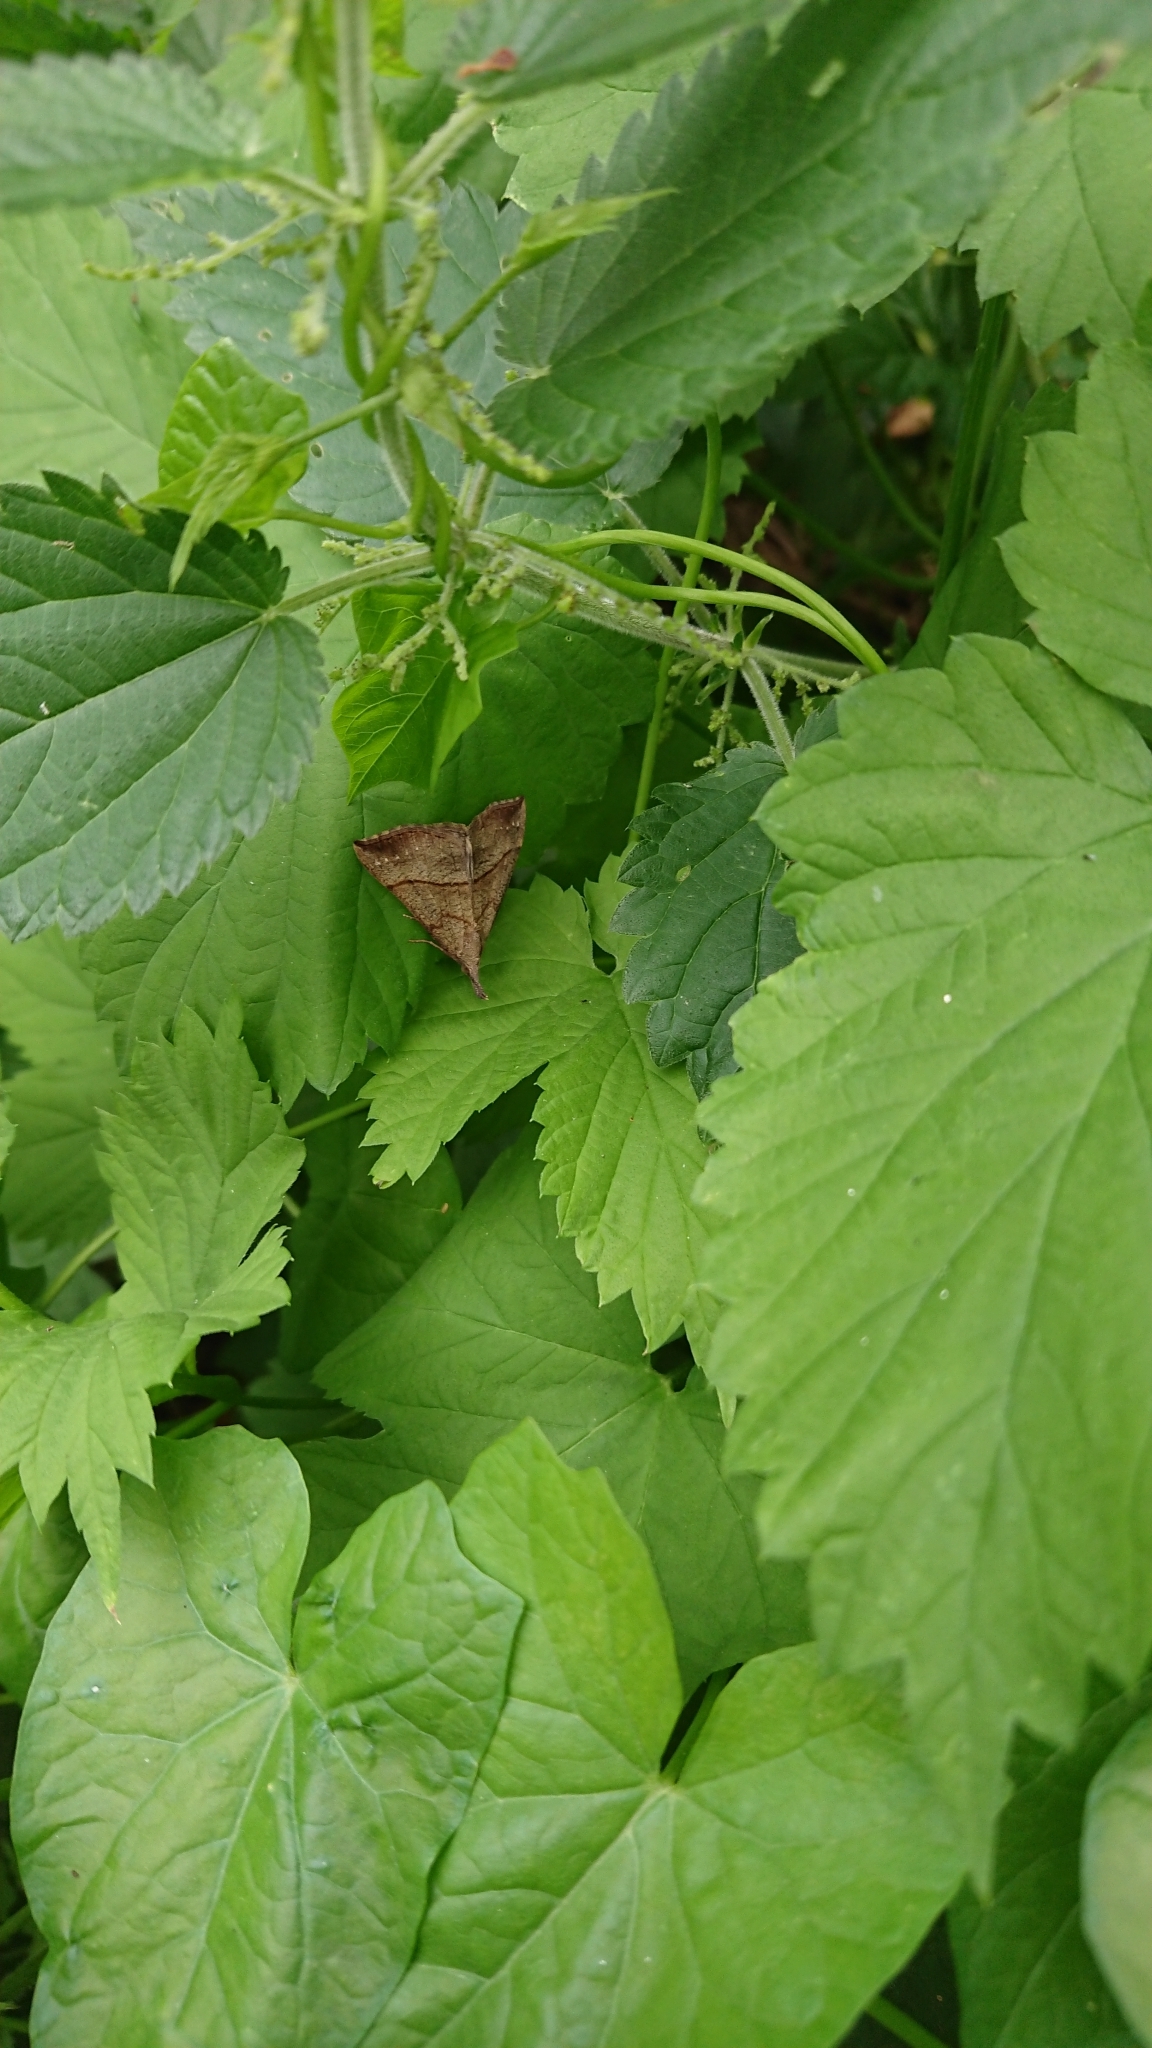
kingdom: Animalia
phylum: Arthropoda
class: Insecta
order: Lepidoptera
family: Erebidae
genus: Hypena
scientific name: Hypena proboscidalis
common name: Snout
